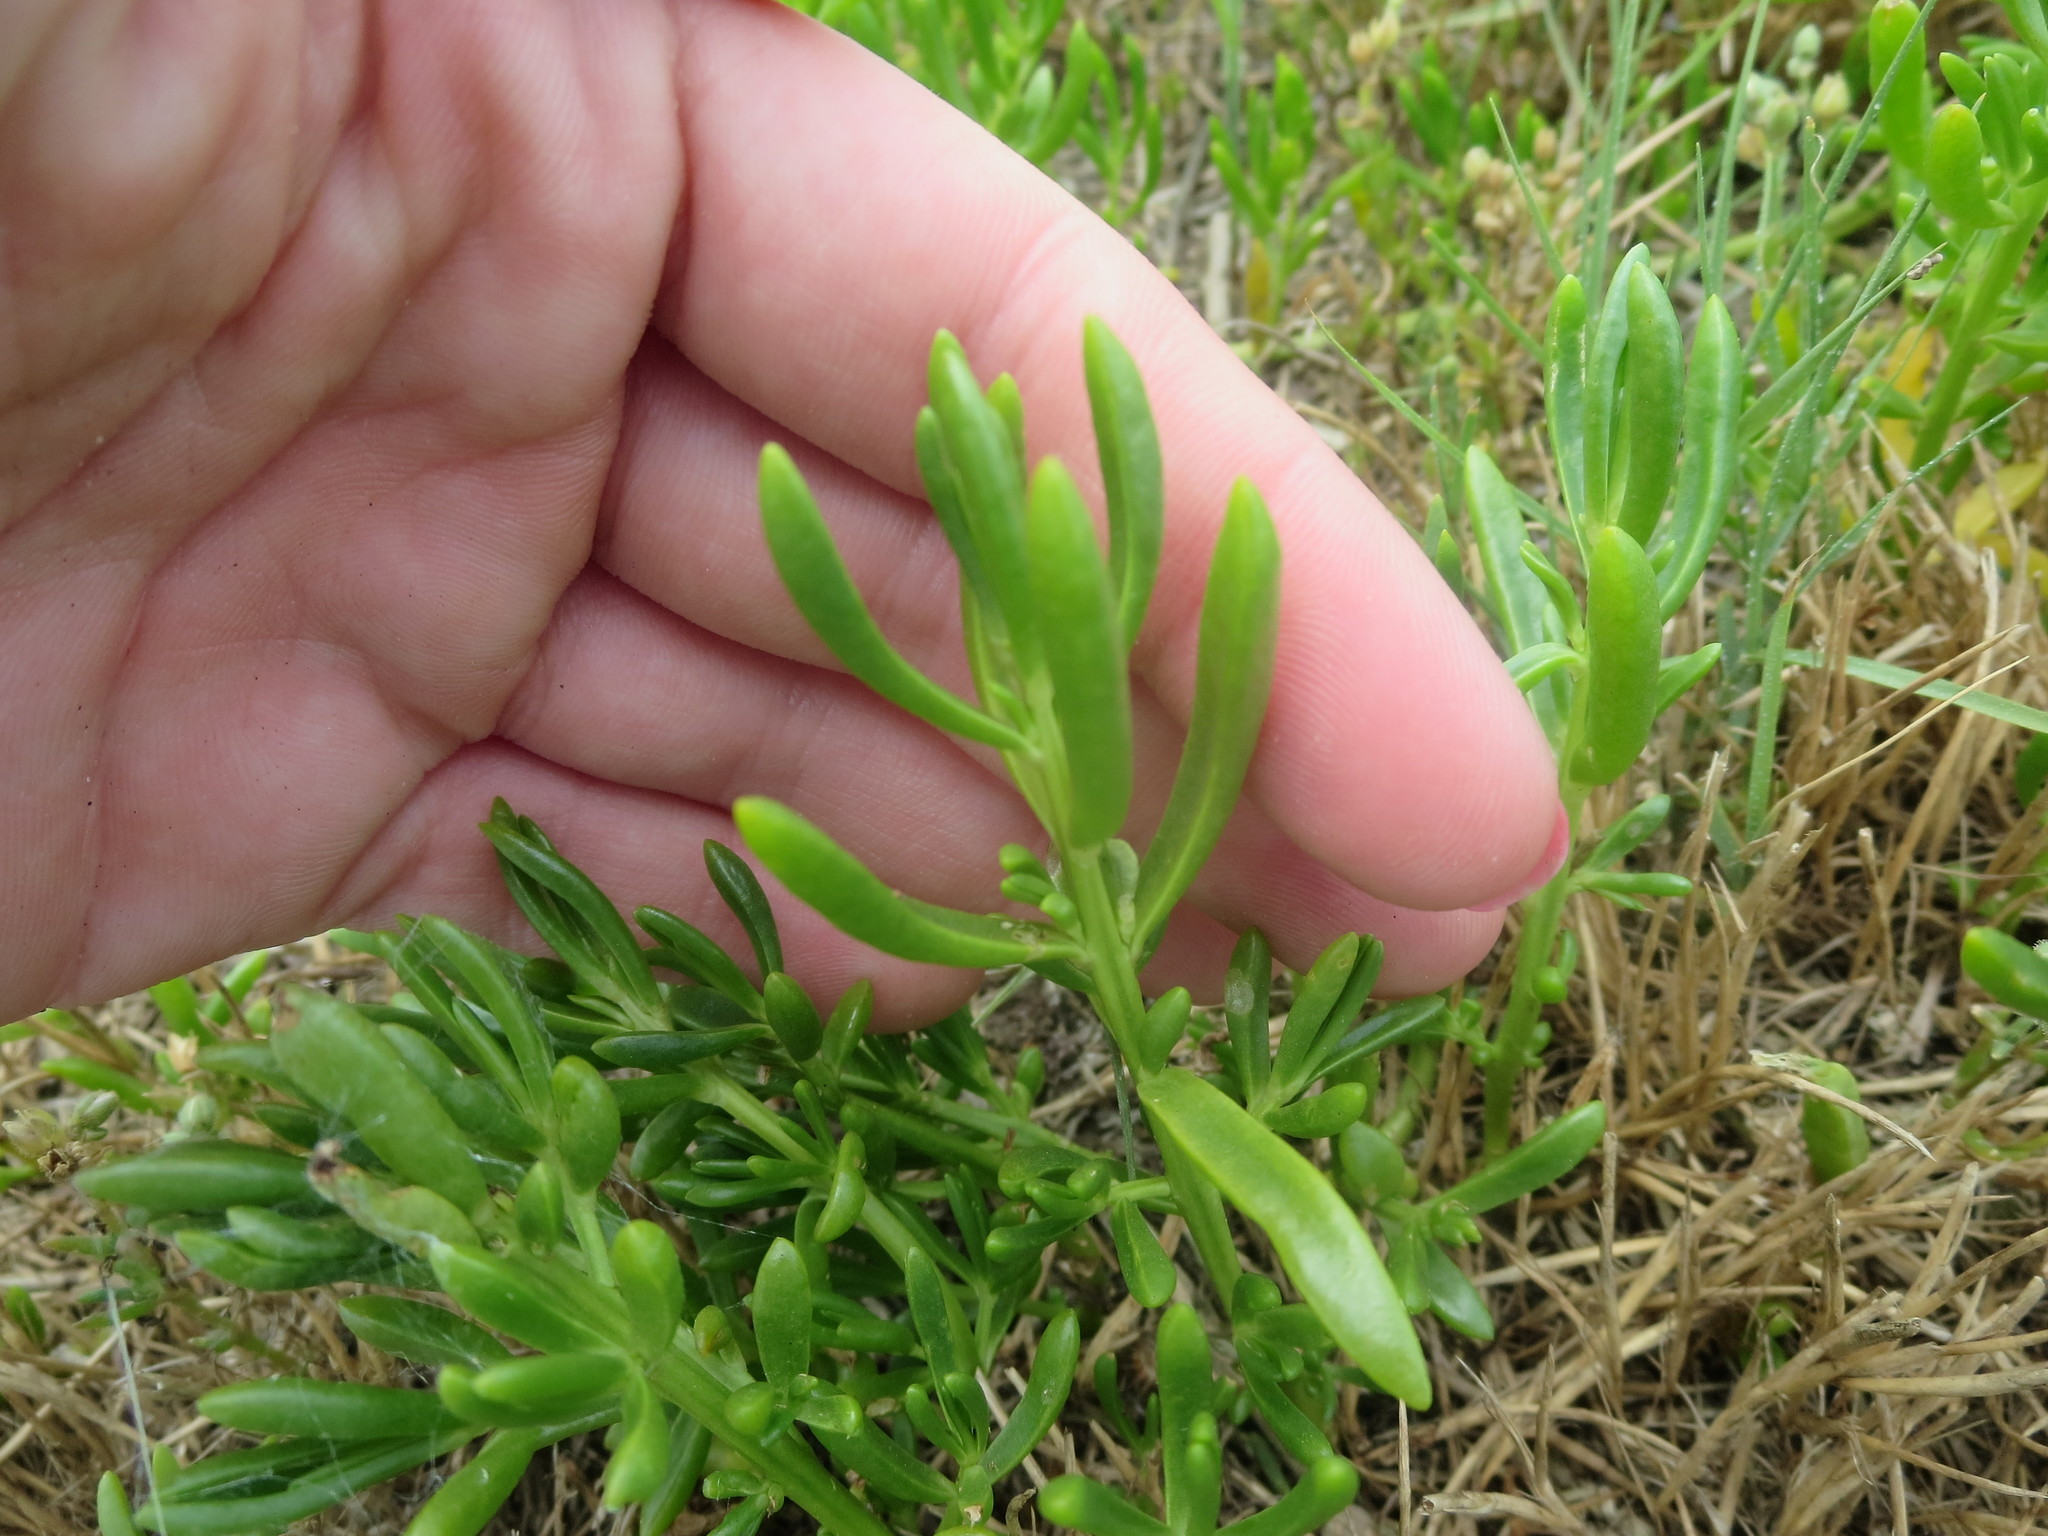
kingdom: Plantae
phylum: Tracheophyta
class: Magnoliopsida
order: Brassicales
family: Bataceae
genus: Batis
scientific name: Batis maritima
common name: Turtleweed
